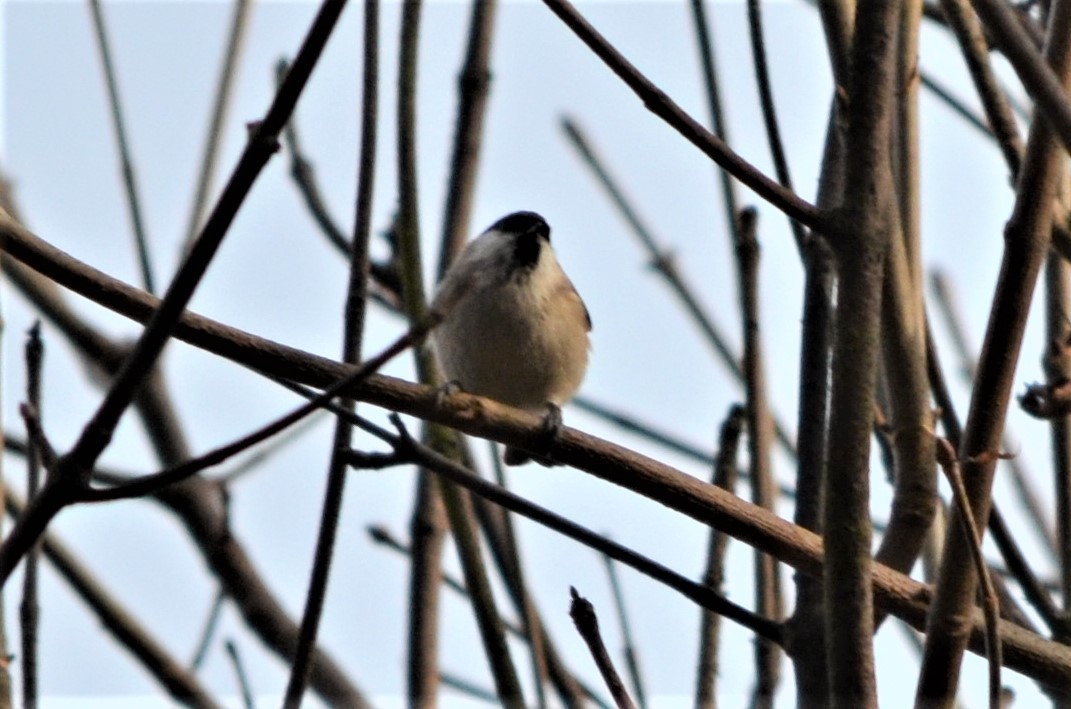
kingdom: Animalia
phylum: Chordata
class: Aves
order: Passeriformes
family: Paridae
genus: Poecile
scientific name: Poecile palustris
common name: Marsh tit
